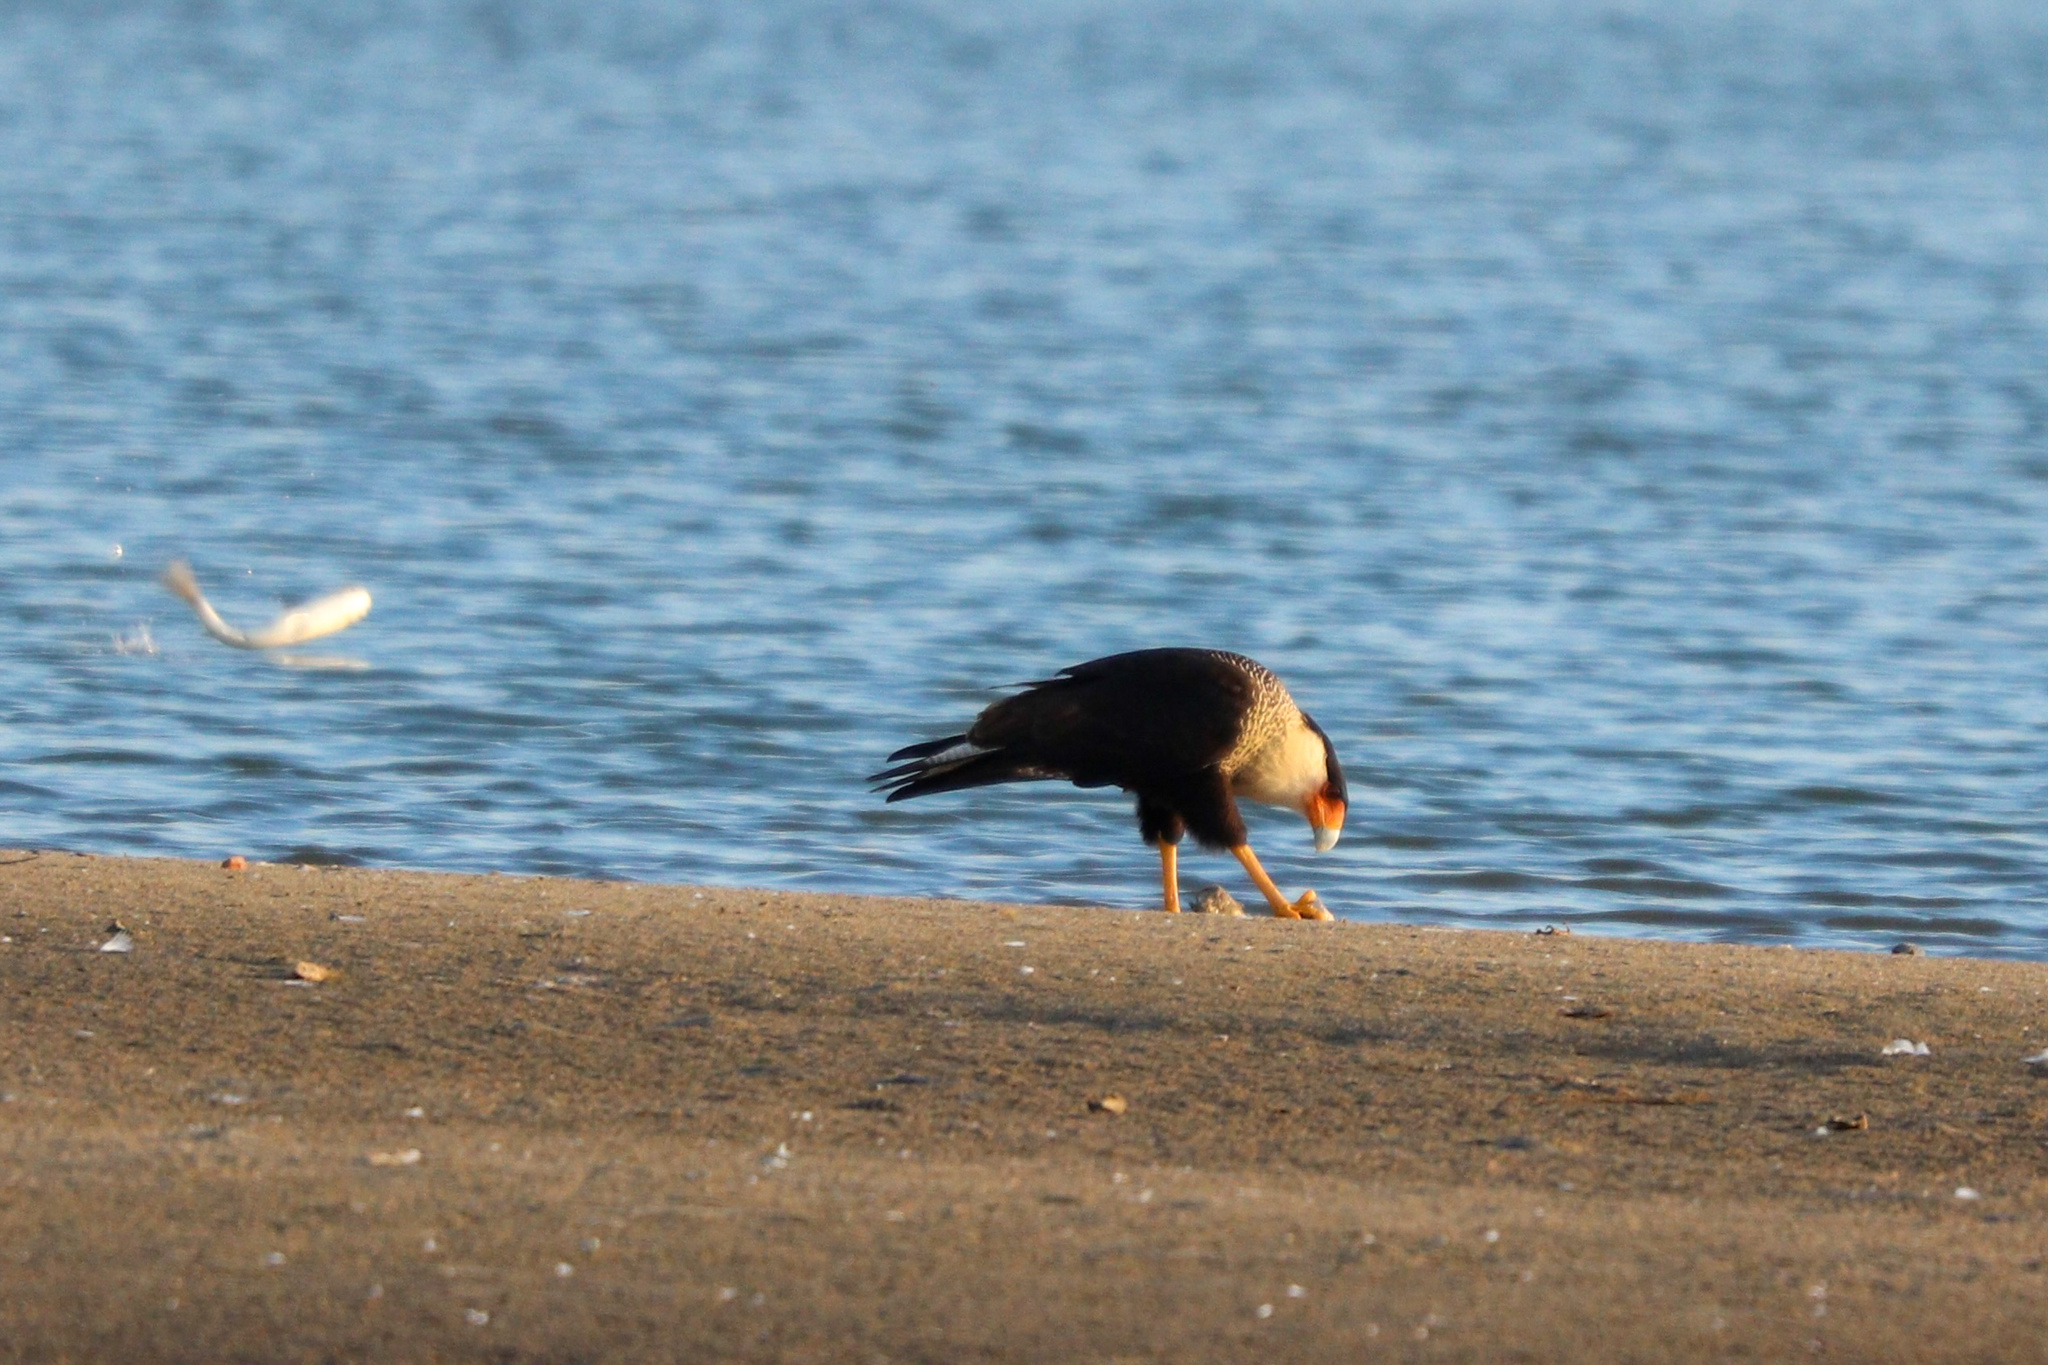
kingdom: Animalia
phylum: Chordata
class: Aves
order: Falconiformes
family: Falconidae
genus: Caracara
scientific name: Caracara plancus
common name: Southern caracara
